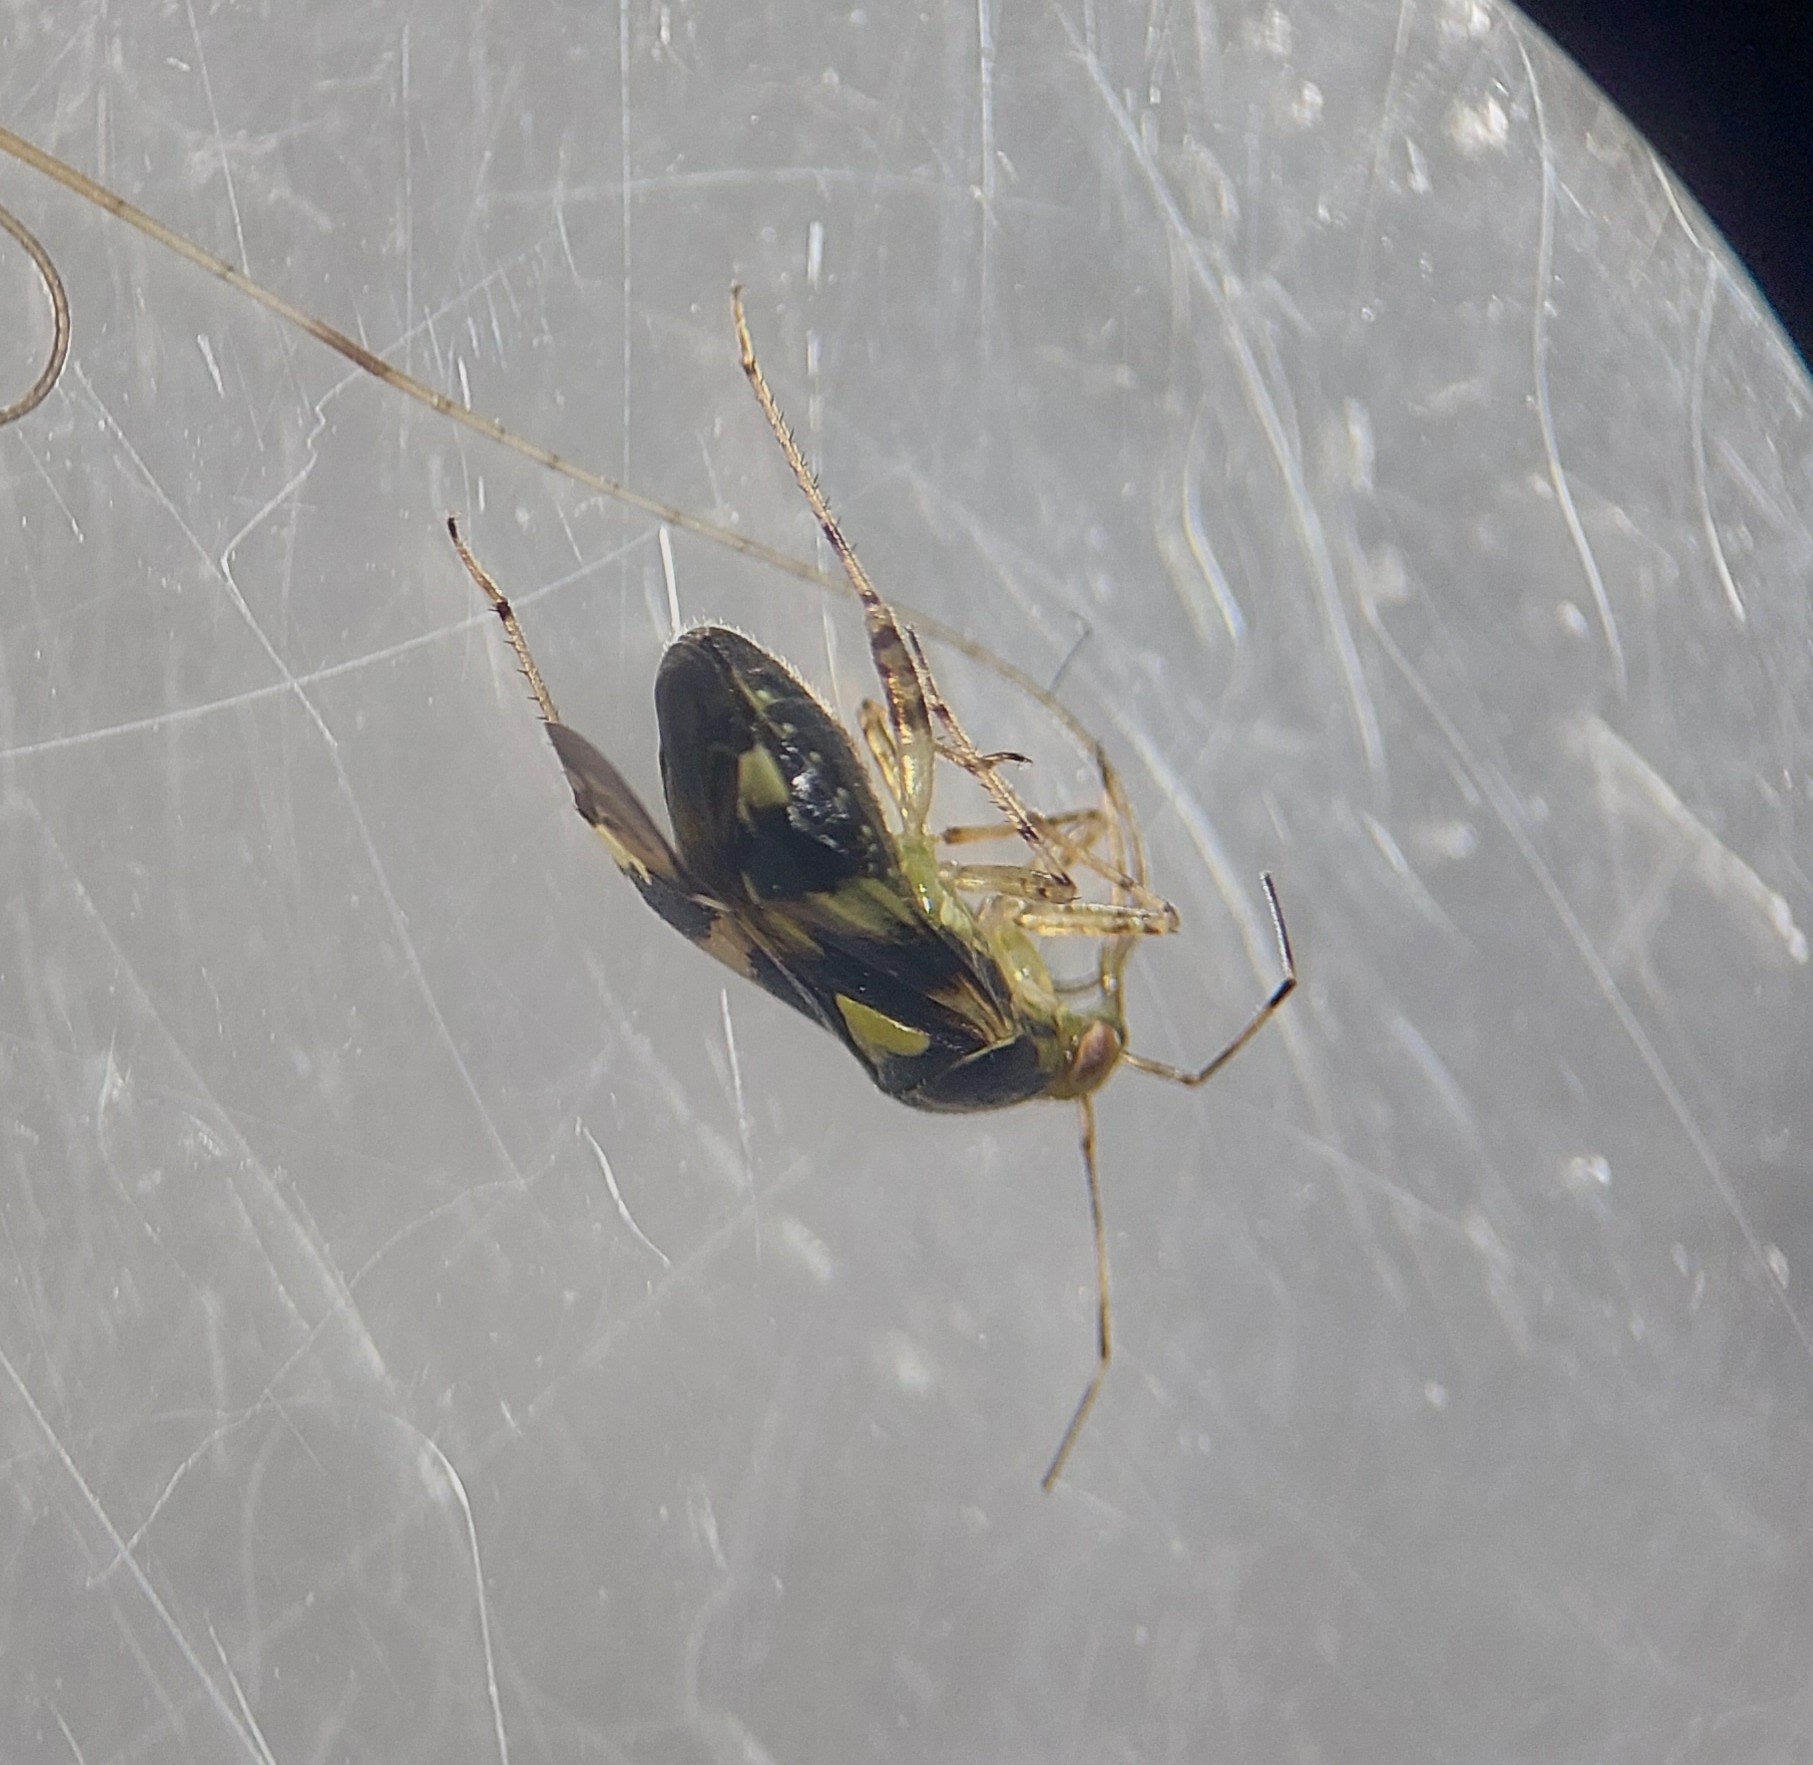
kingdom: Animalia
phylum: Arthropoda
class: Insecta
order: Hemiptera
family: Miridae
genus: Liocoris
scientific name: Liocoris tripustulatus
